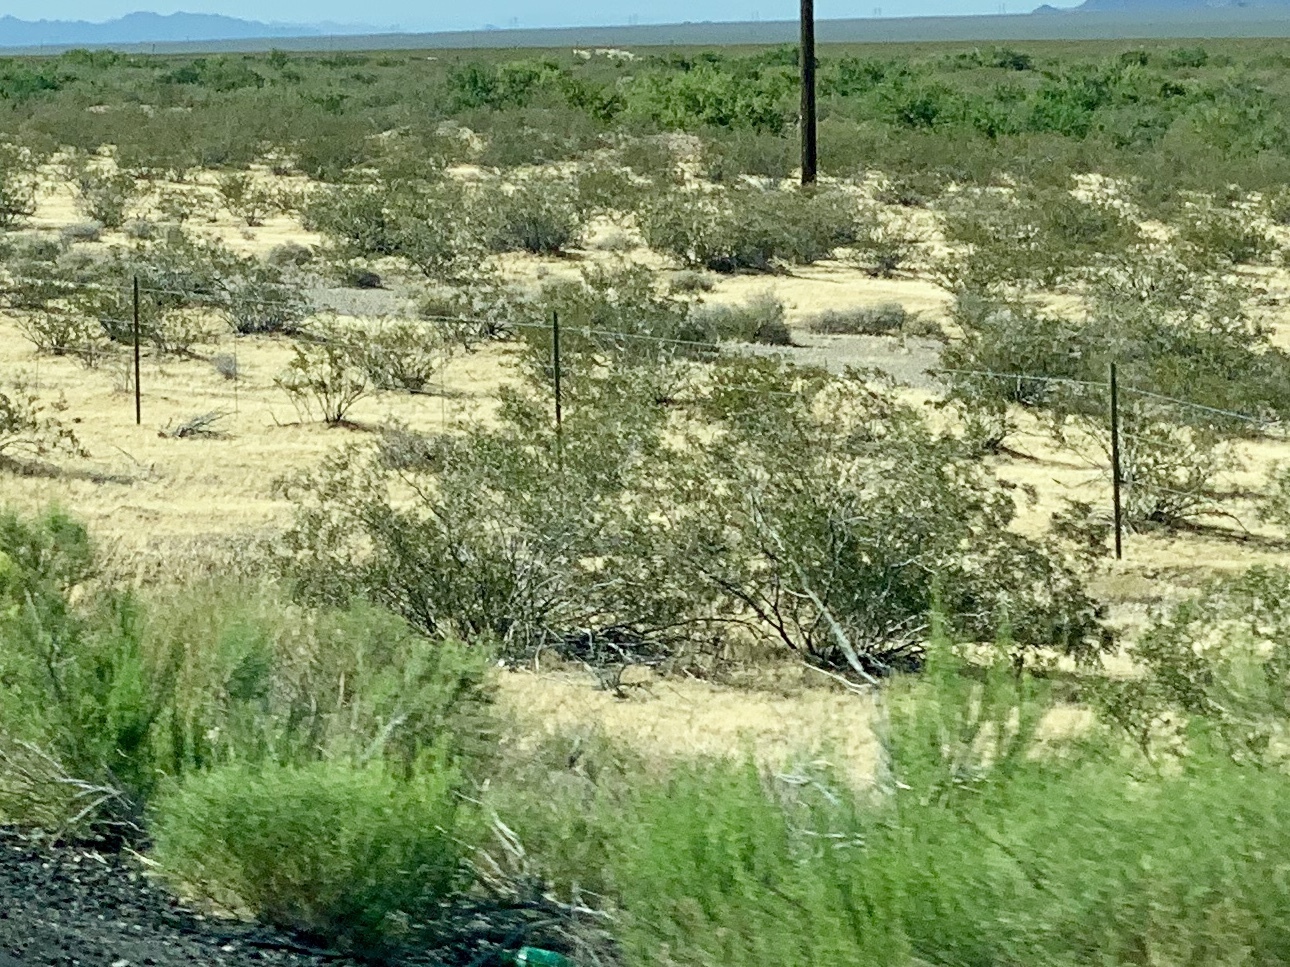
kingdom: Plantae
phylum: Tracheophyta
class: Magnoliopsida
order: Zygophyllales
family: Zygophyllaceae
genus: Larrea
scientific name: Larrea tridentata
